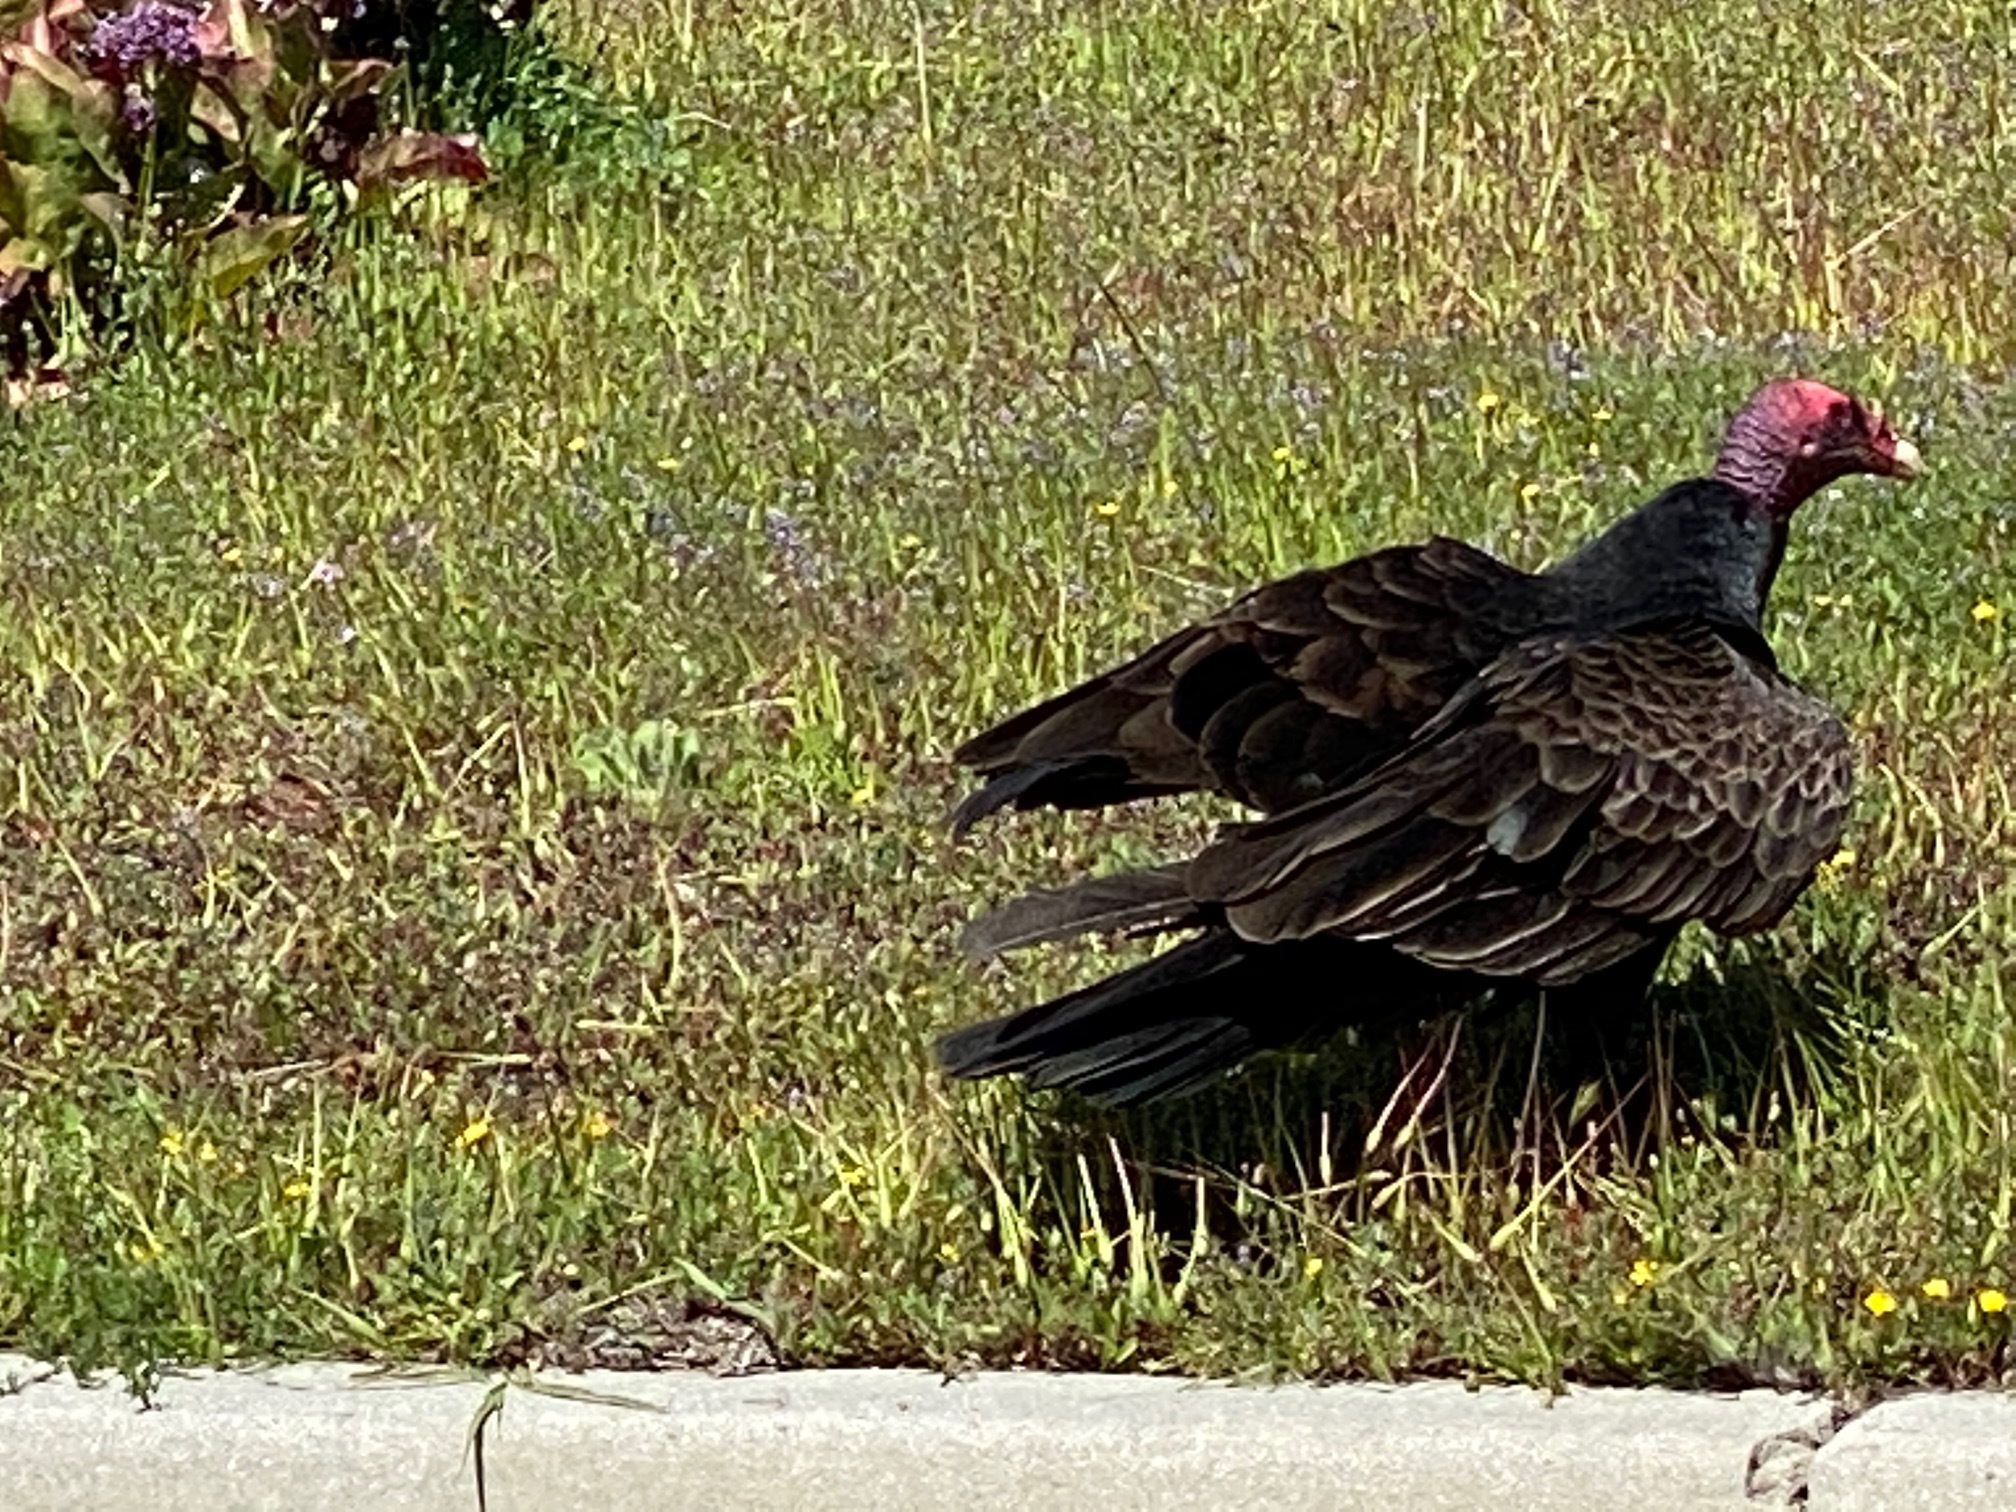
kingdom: Animalia
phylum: Chordata
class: Aves
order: Accipitriformes
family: Cathartidae
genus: Cathartes
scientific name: Cathartes aura
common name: Turkey vulture
